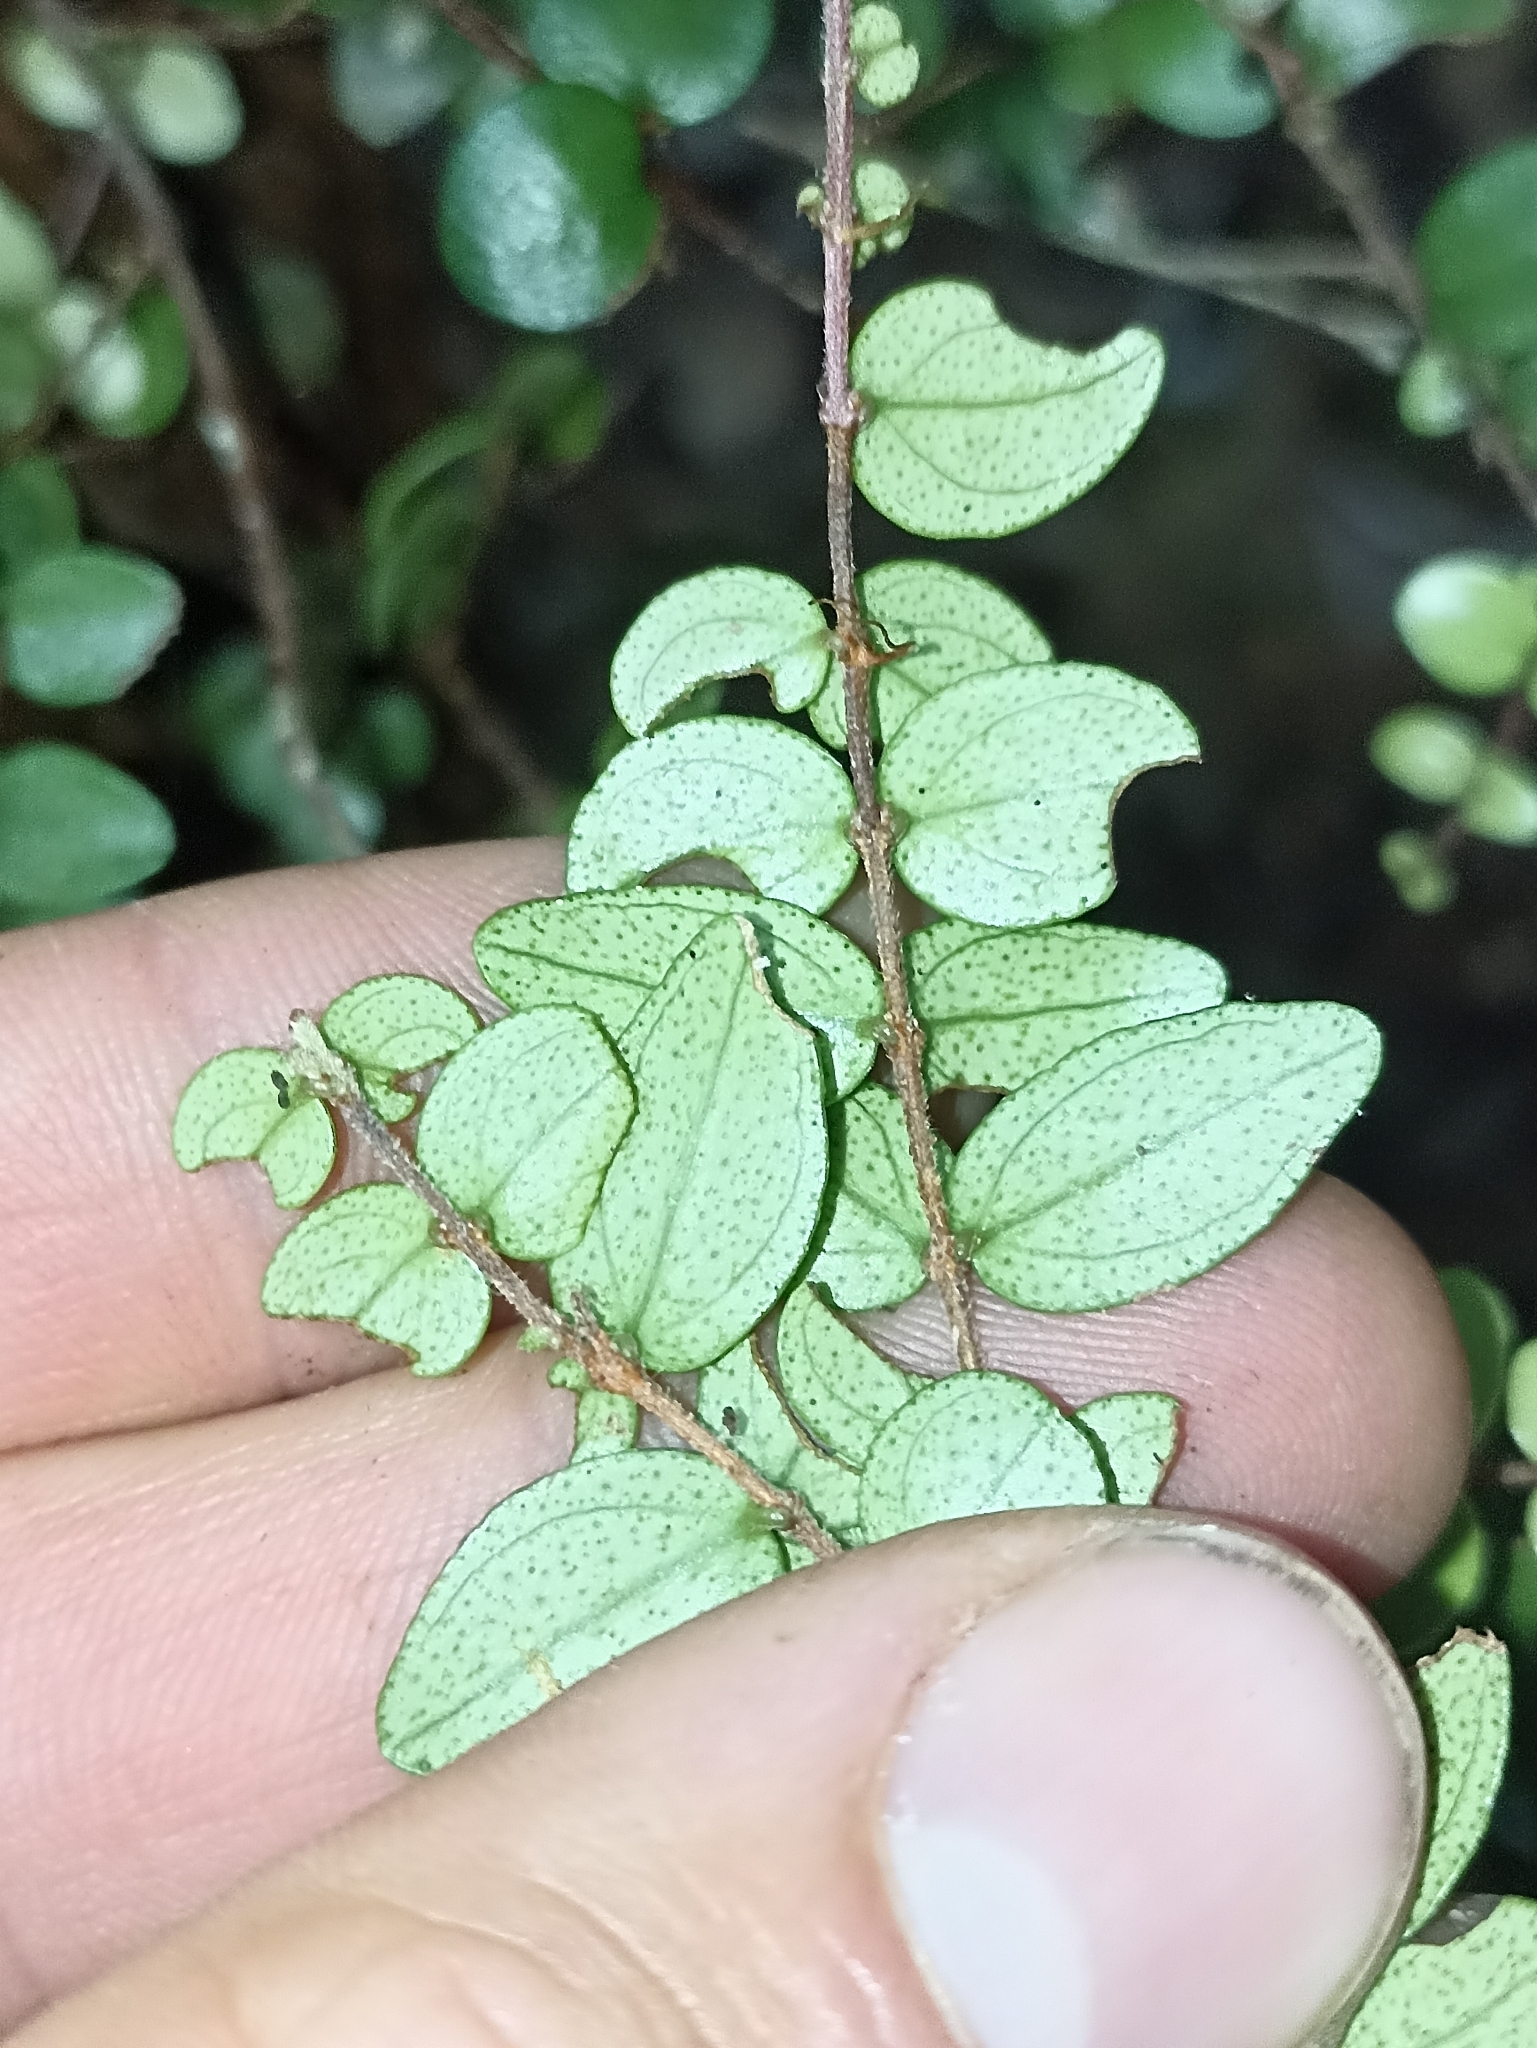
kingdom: Plantae
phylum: Tracheophyta
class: Magnoliopsida
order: Myrtales
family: Myrtaceae
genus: Metrosideros
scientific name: Metrosideros perforata
